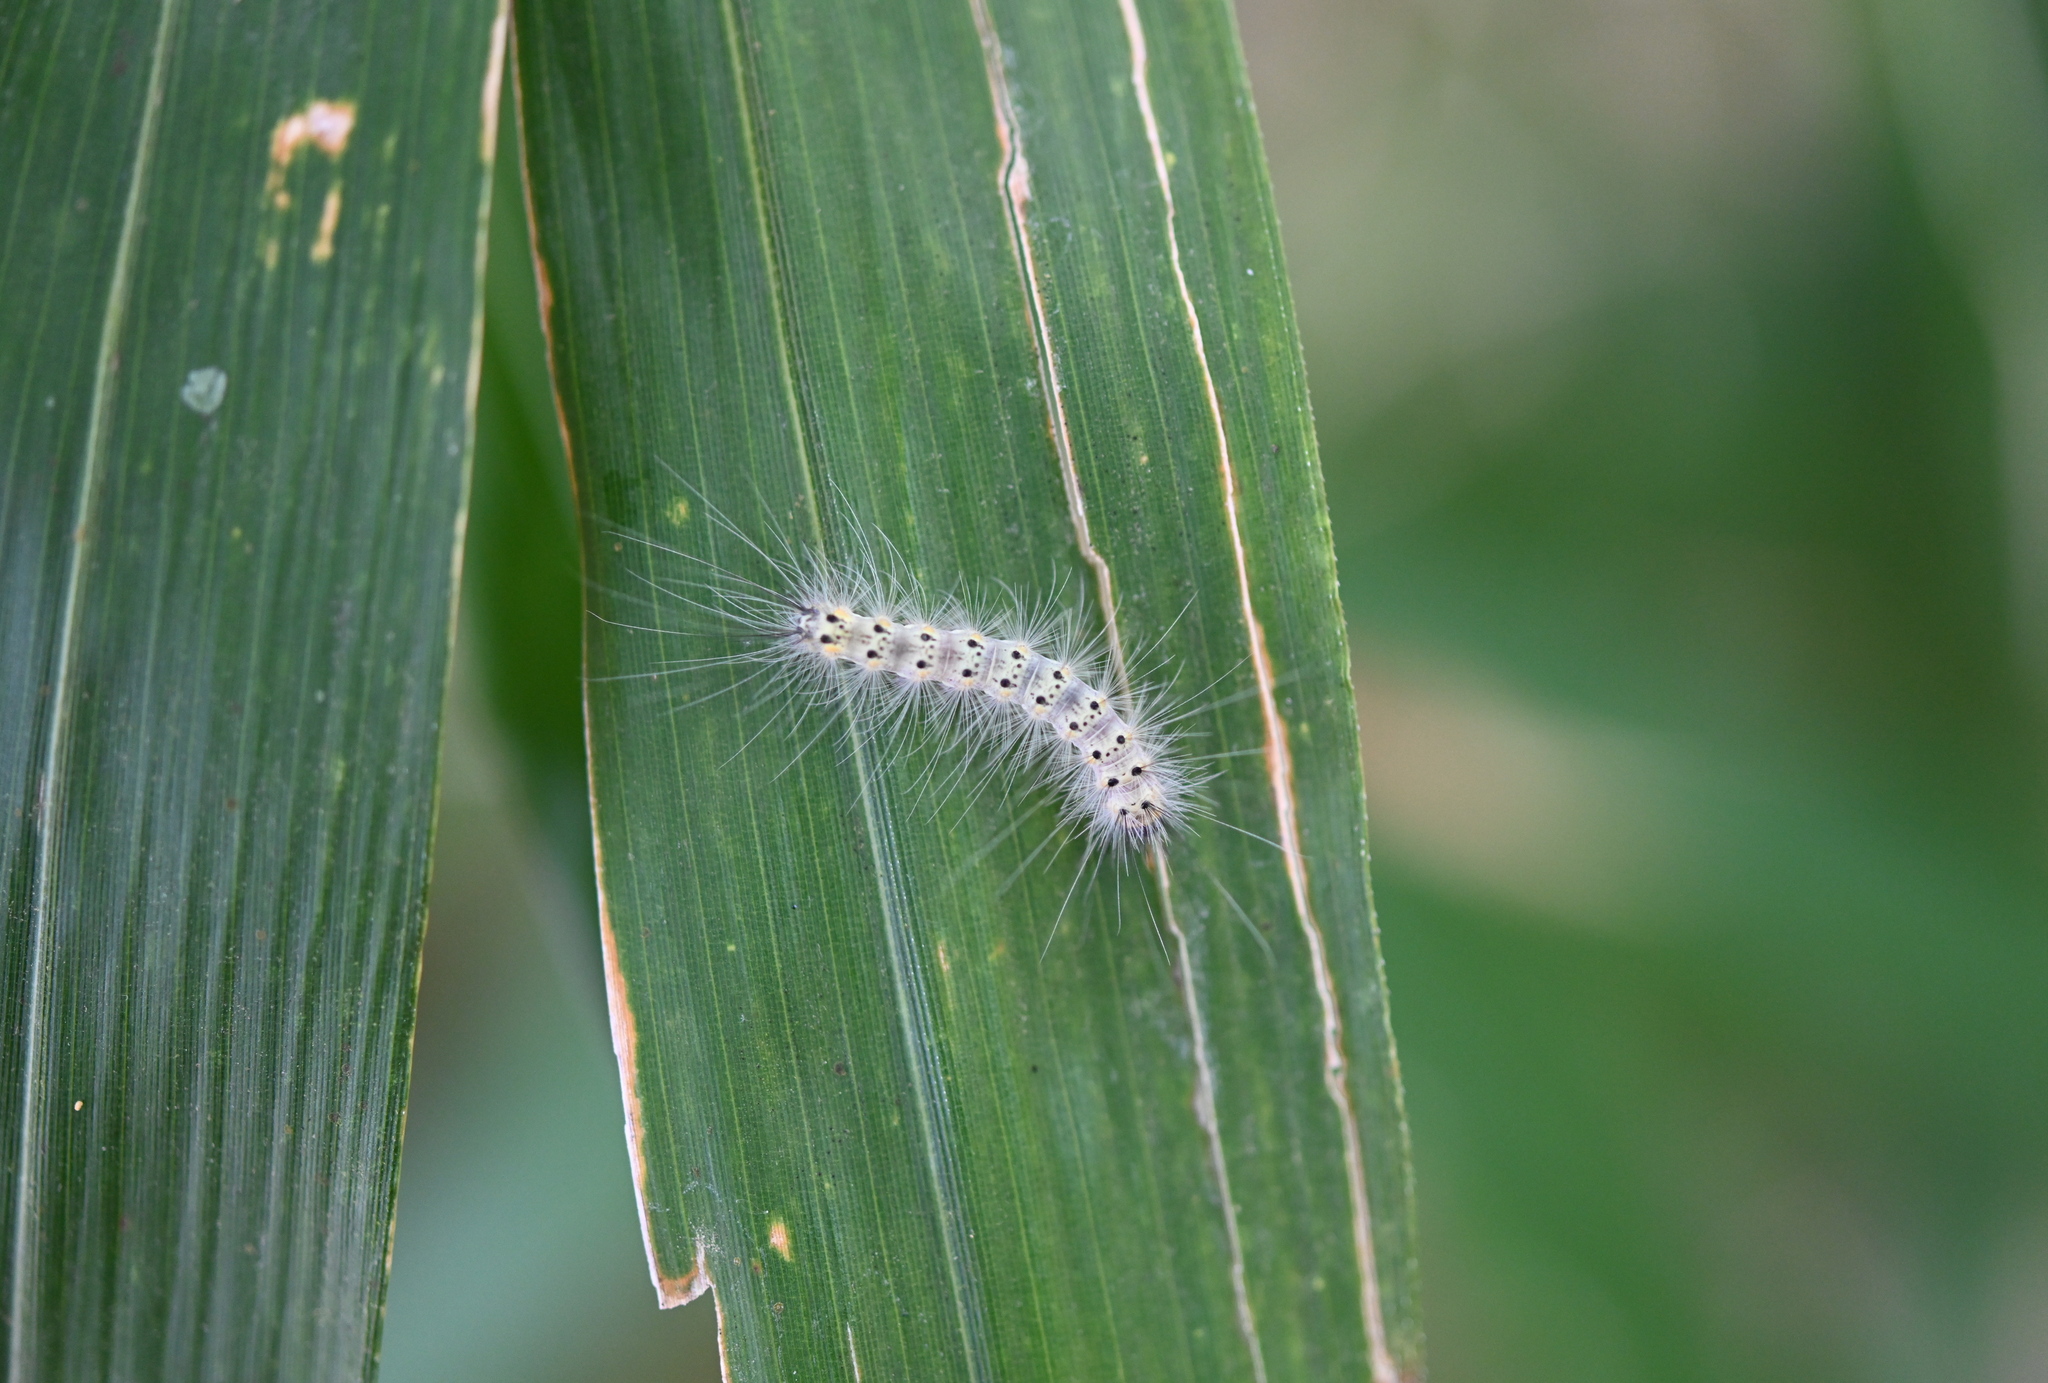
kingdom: Animalia
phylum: Arthropoda
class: Insecta
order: Lepidoptera
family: Erebidae
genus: Hyphantria
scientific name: Hyphantria cunea
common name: American white moth
